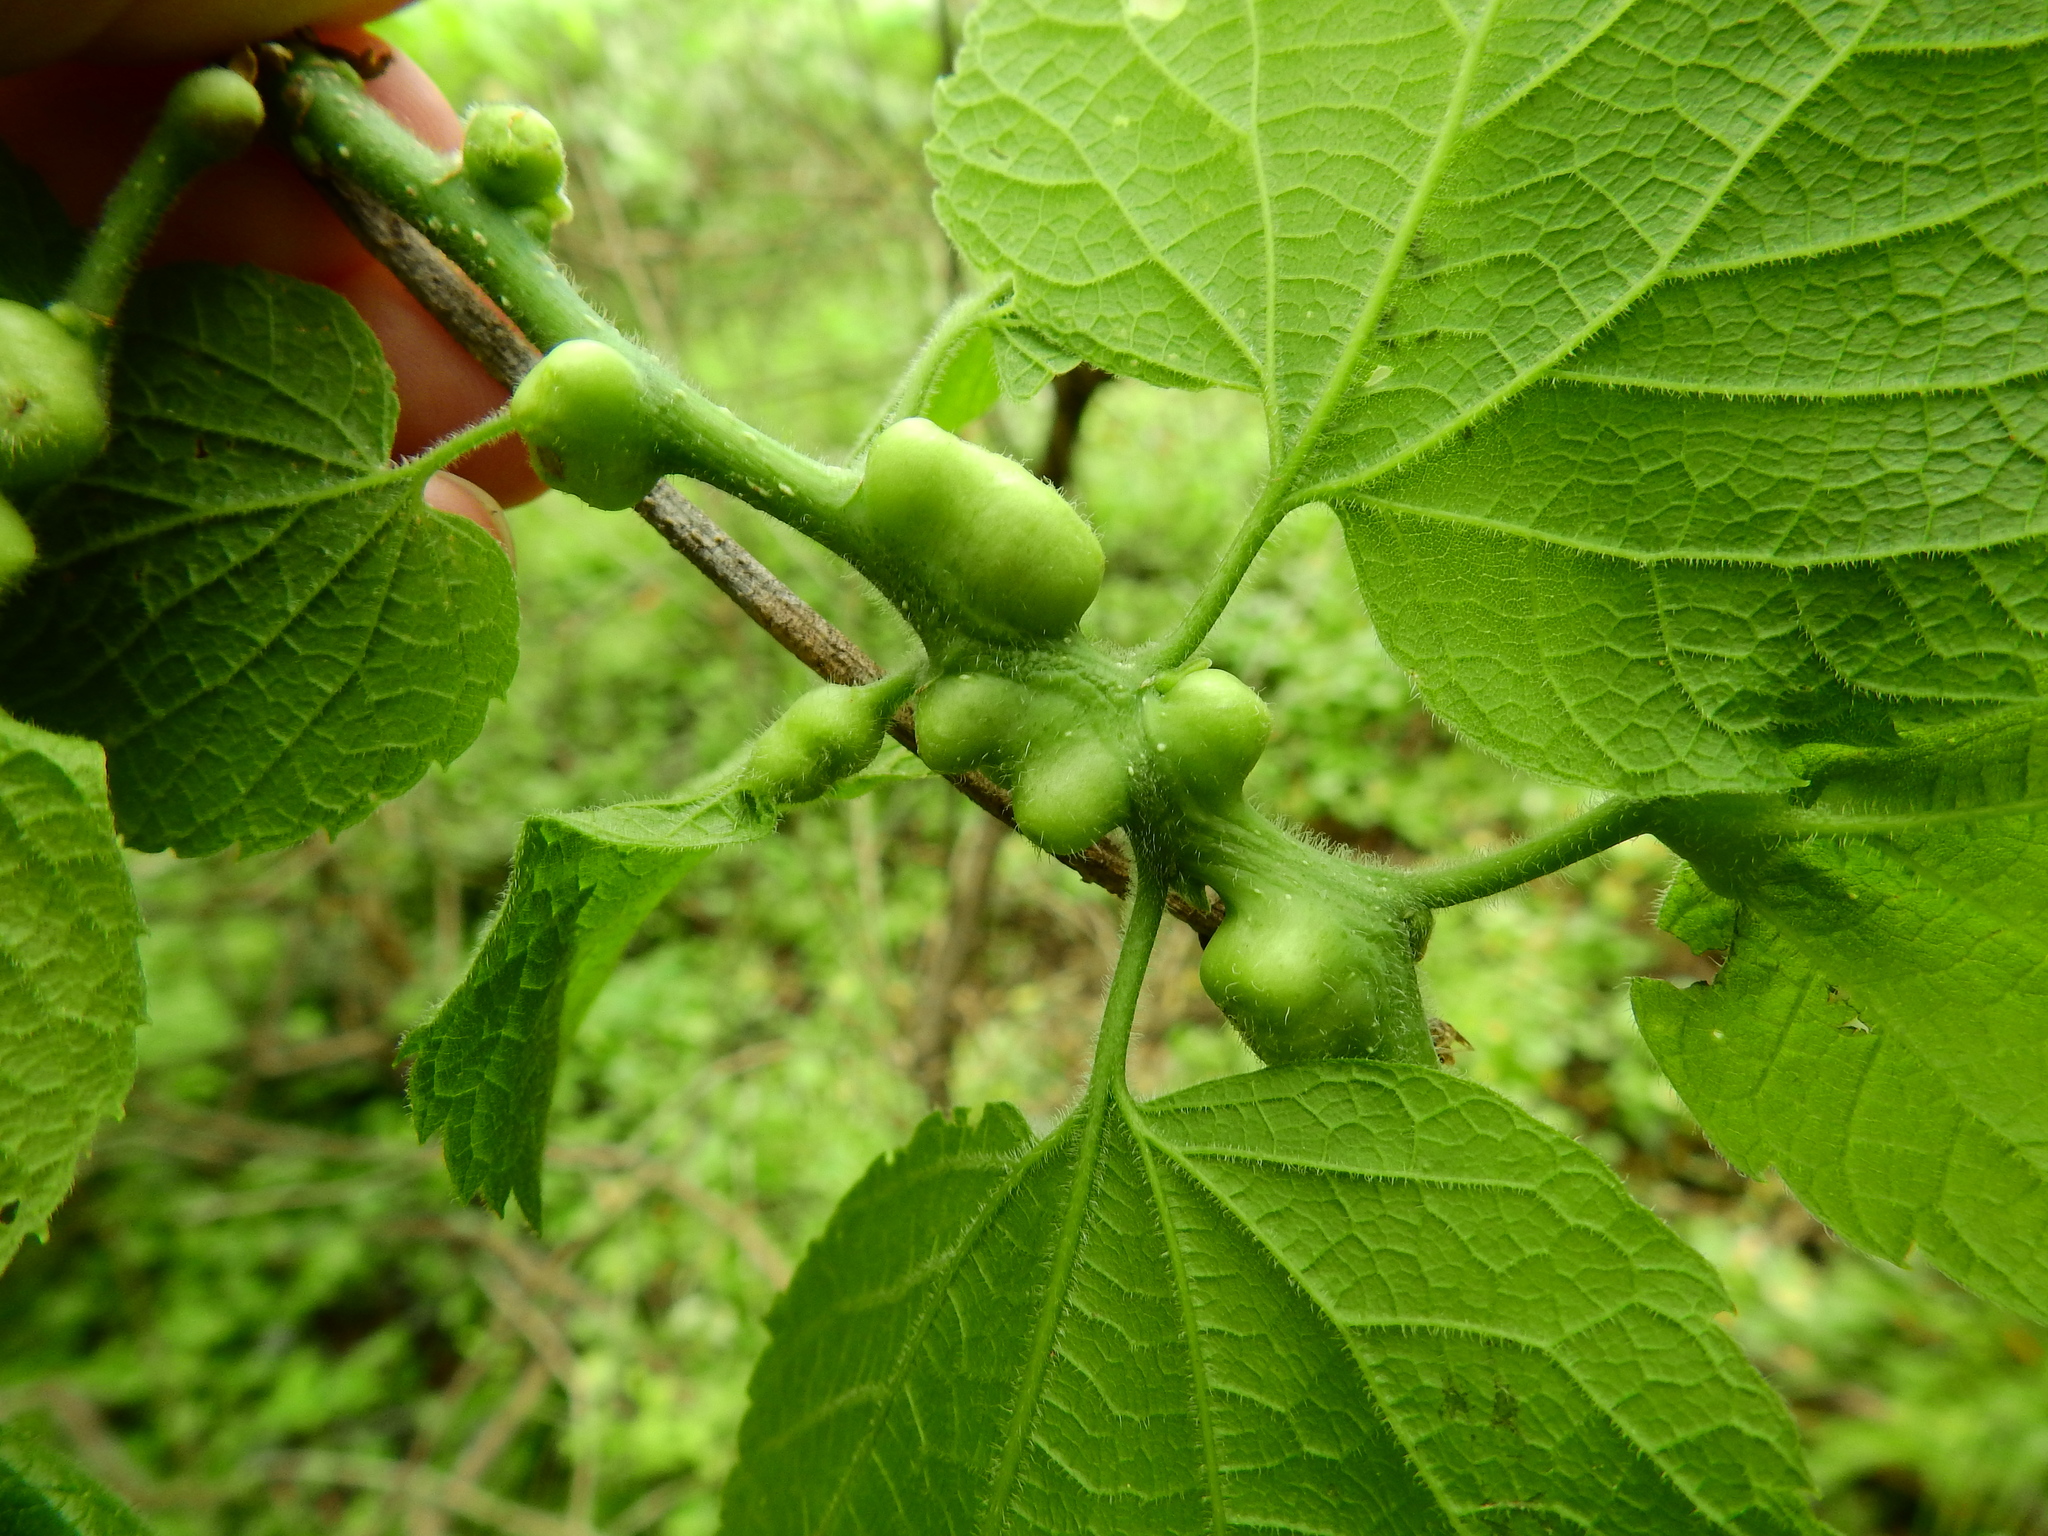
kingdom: Animalia
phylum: Arthropoda
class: Insecta
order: Diptera
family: Cecidomyiidae
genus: Celticecis
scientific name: Celticecis expulsa
